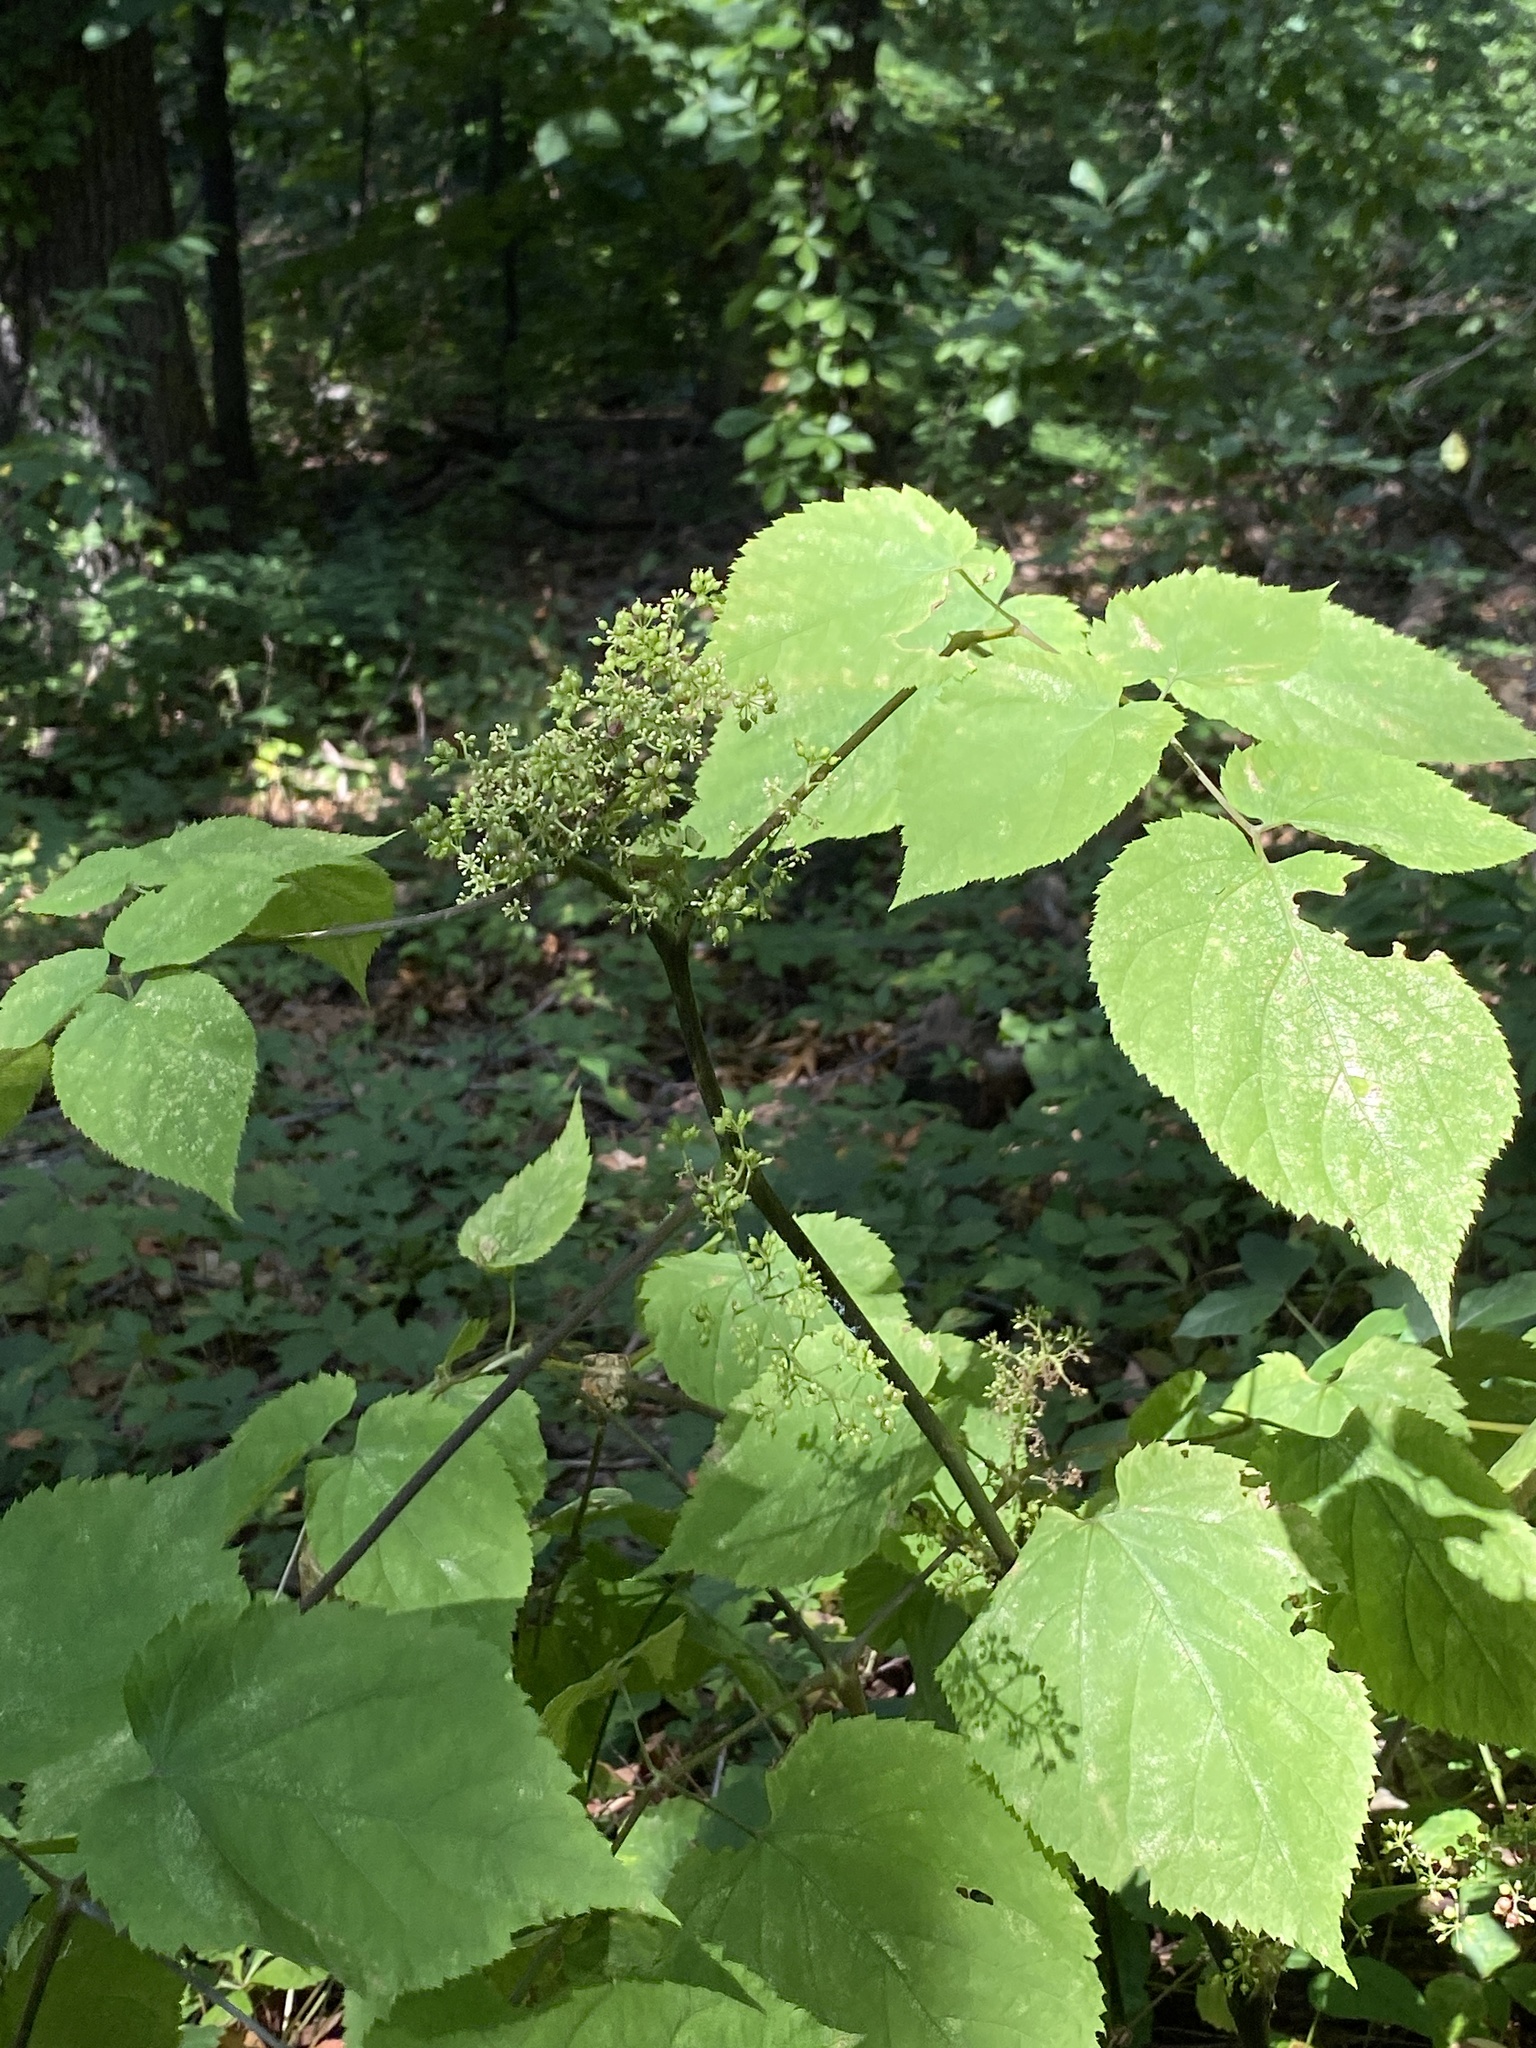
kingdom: Plantae
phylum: Tracheophyta
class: Magnoliopsida
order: Apiales
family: Araliaceae
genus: Aralia
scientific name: Aralia racemosa
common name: American-spikenard
